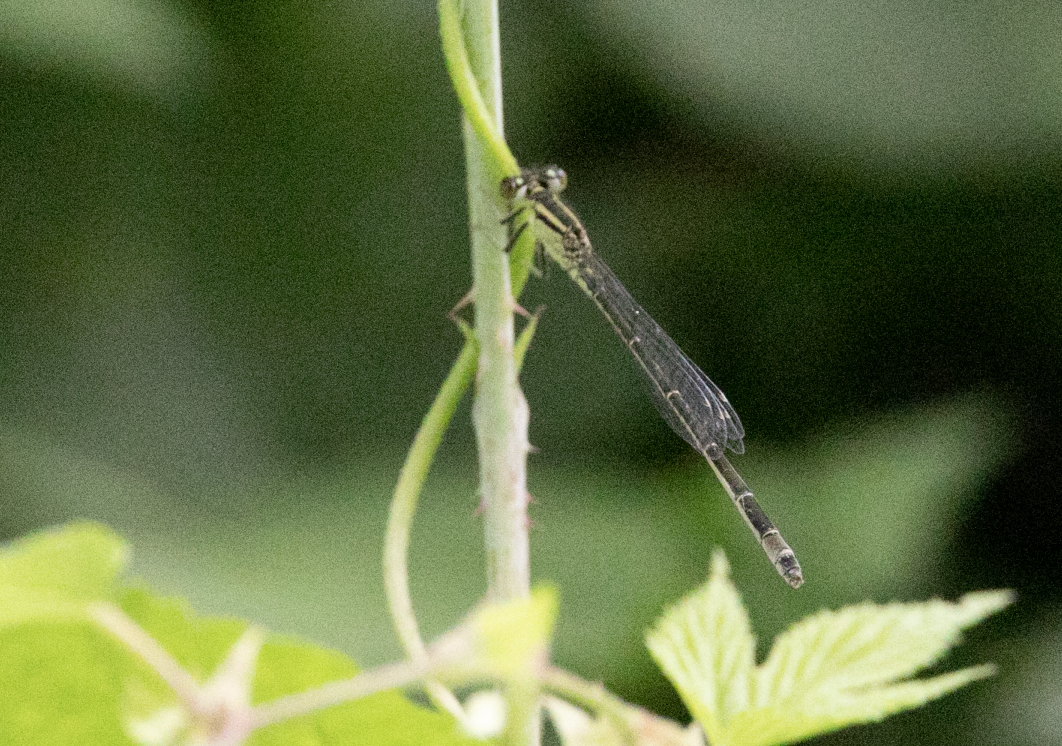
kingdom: Animalia
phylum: Arthropoda
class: Insecta
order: Odonata
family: Coenagrionidae
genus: Ischnura
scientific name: Ischnura elegans
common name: Blue-tailed damselfly
